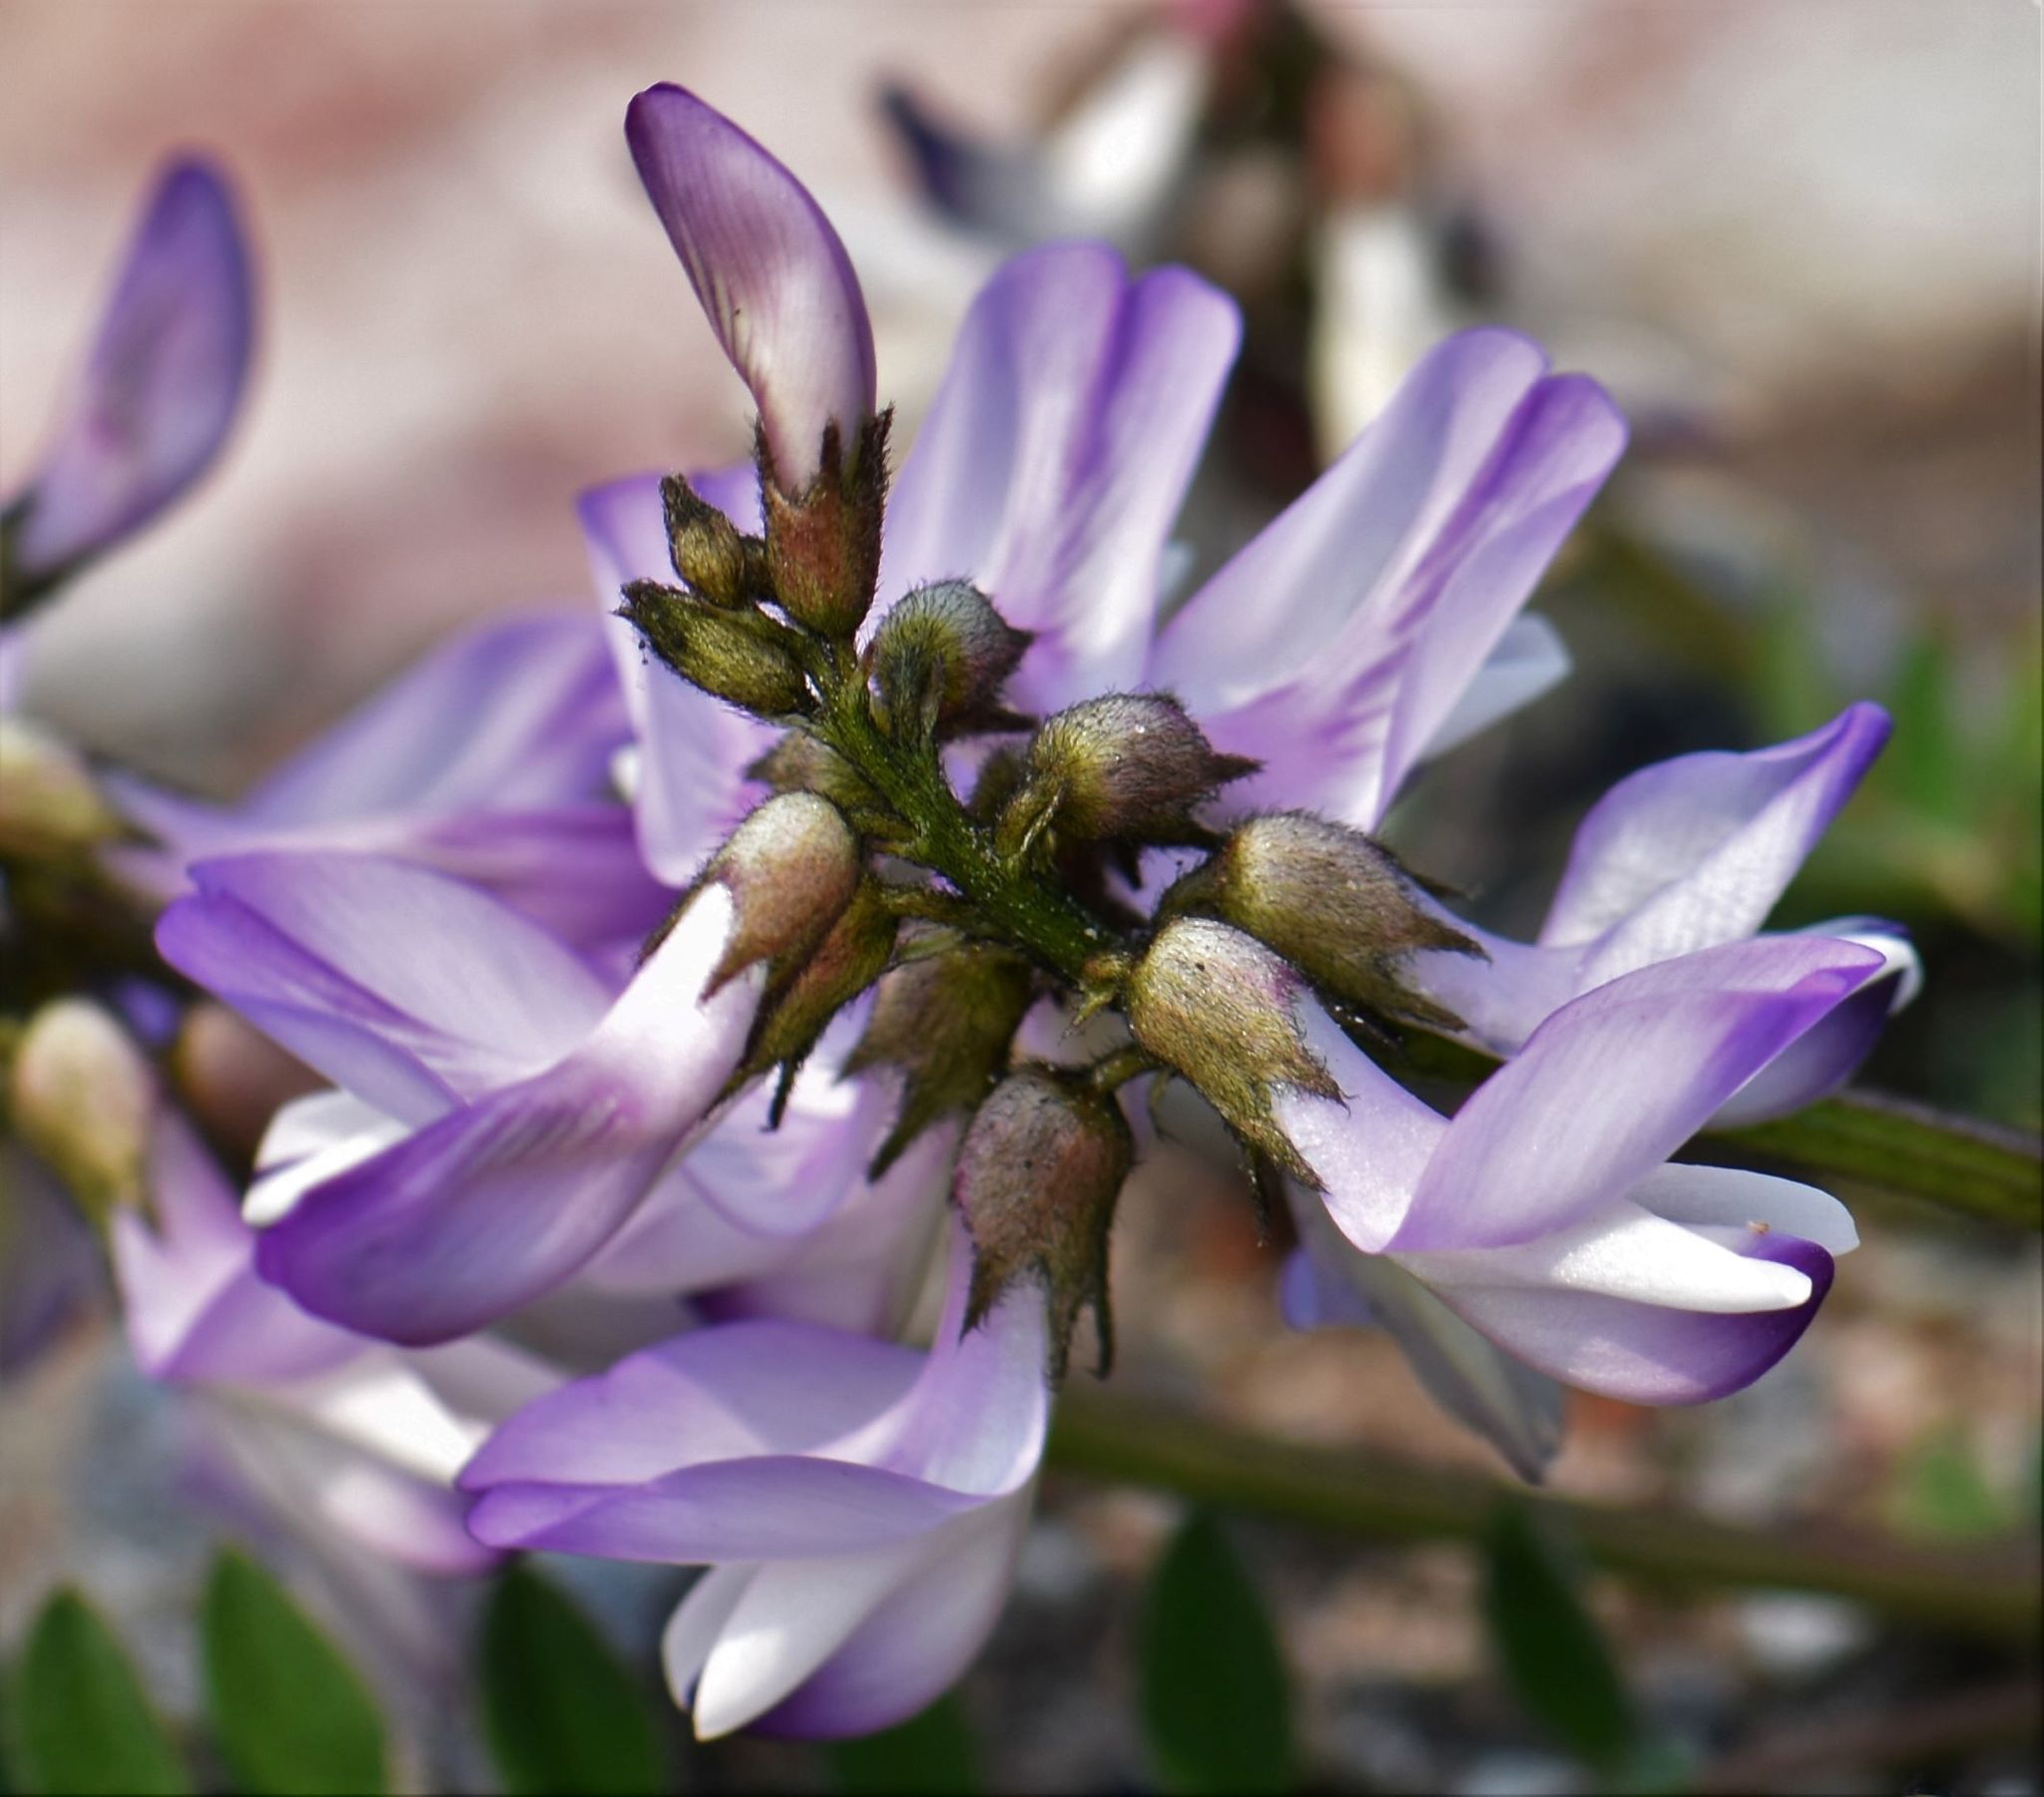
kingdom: Plantae
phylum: Tracheophyta
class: Magnoliopsida
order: Fabales
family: Fabaceae
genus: Astragalus
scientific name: Astragalus alpinus
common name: Alpine milk-vetch
